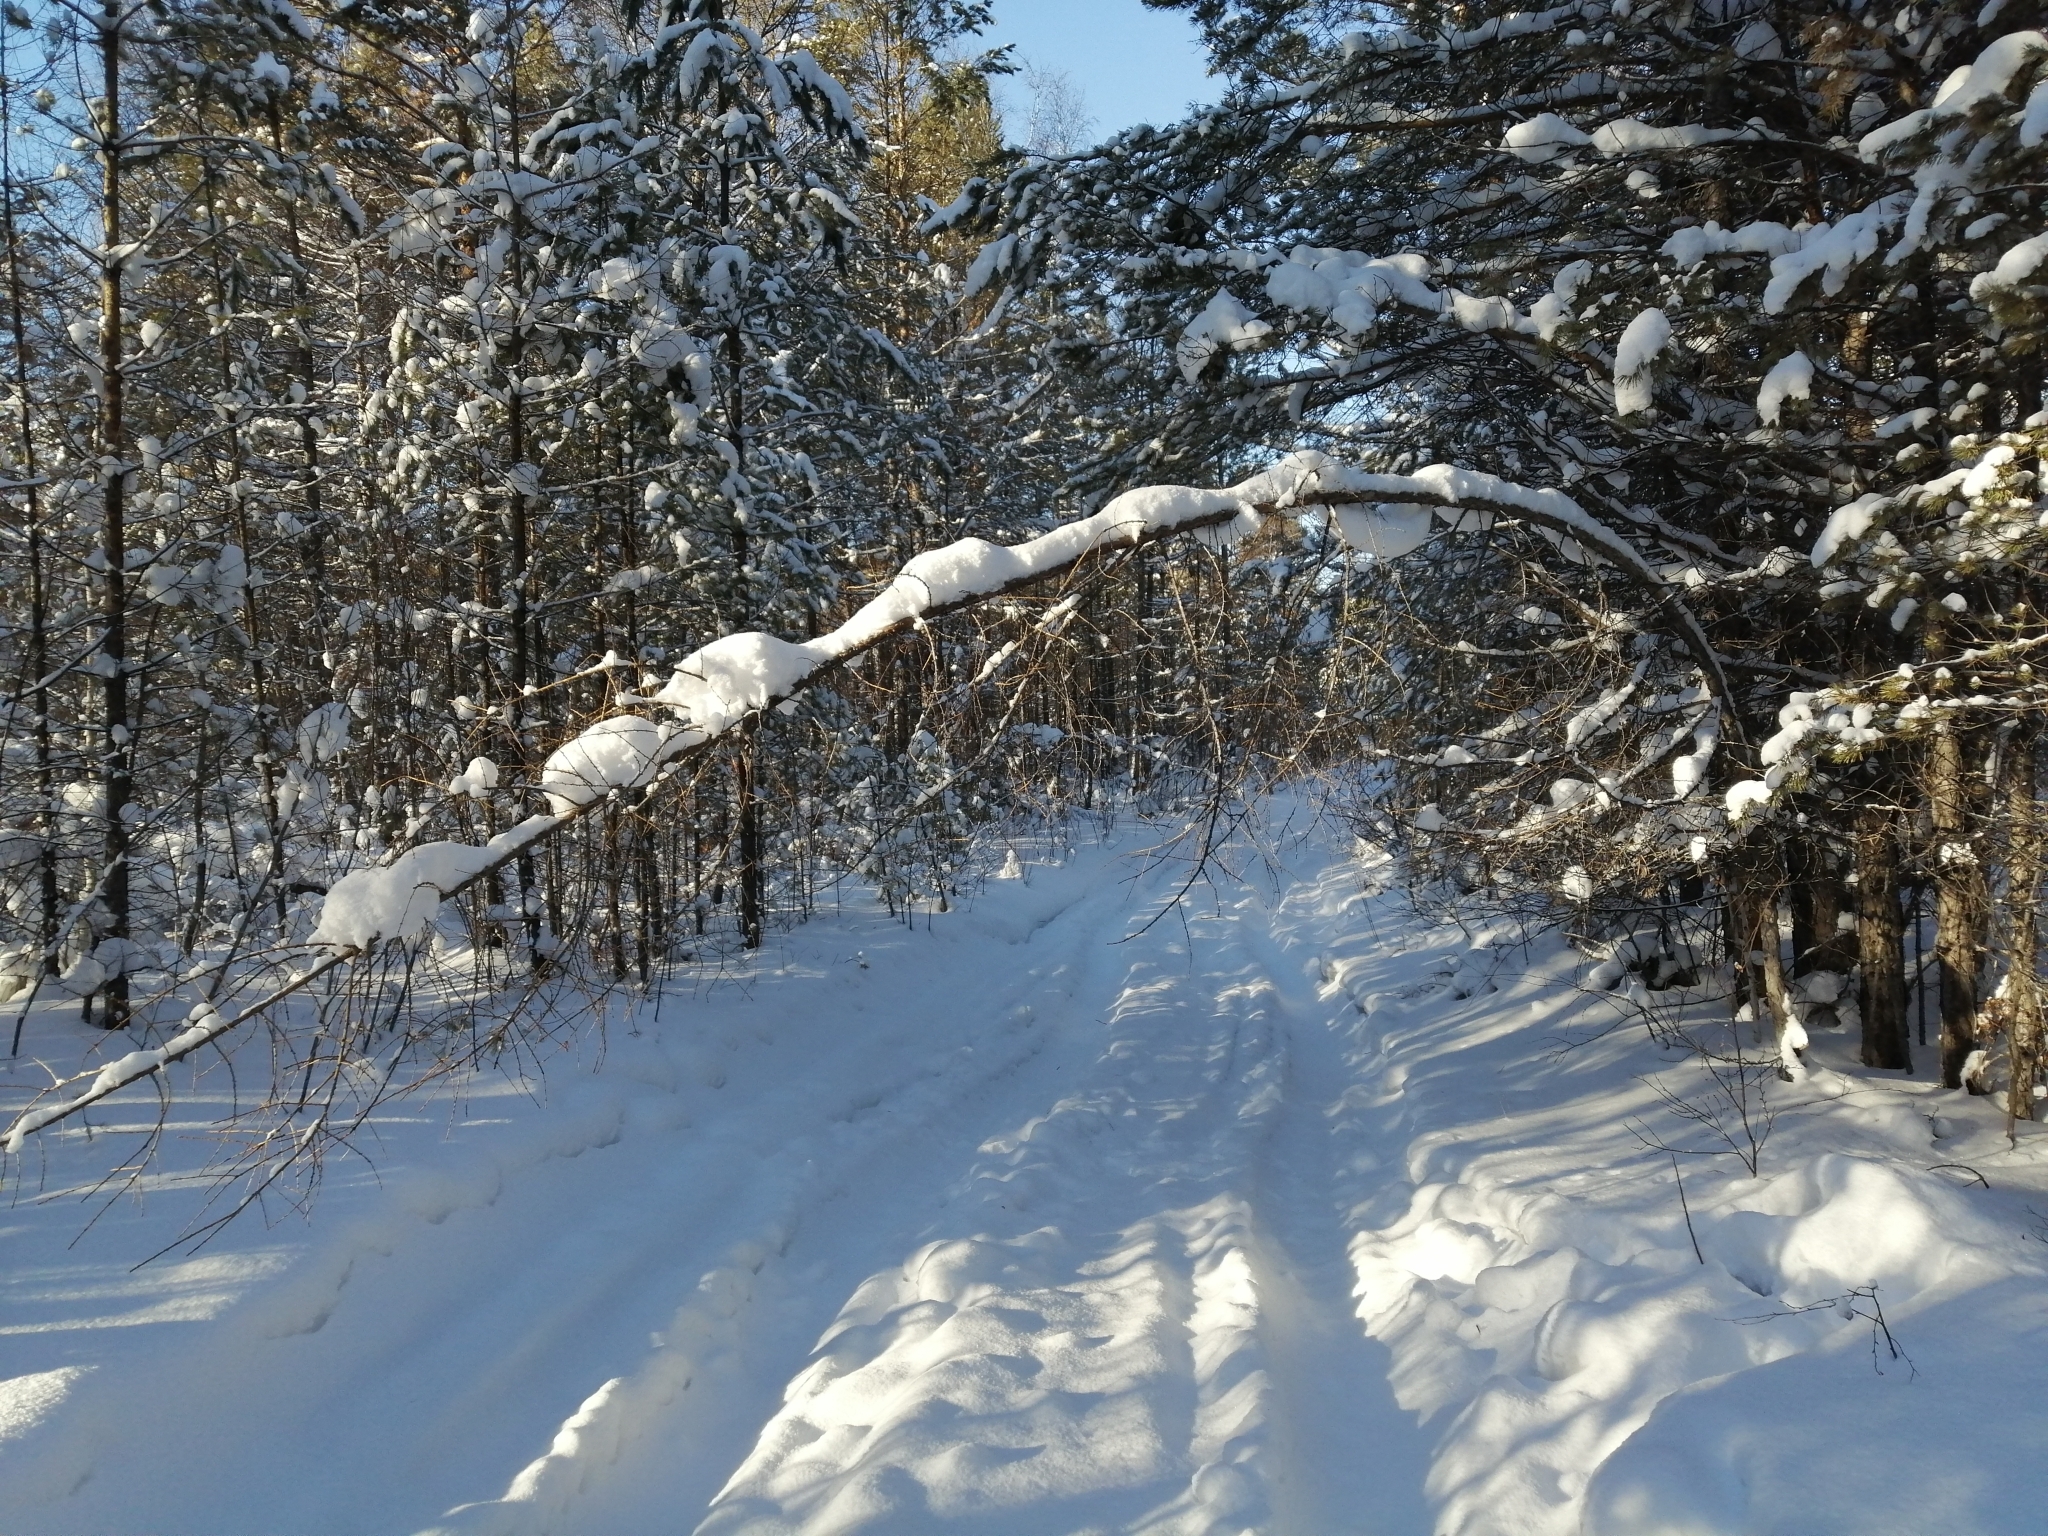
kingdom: Plantae
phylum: Tracheophyta
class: Pinopsida
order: Pinales
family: Pinaceae
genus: Larix
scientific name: Larix sibirica
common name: Siberian larch
